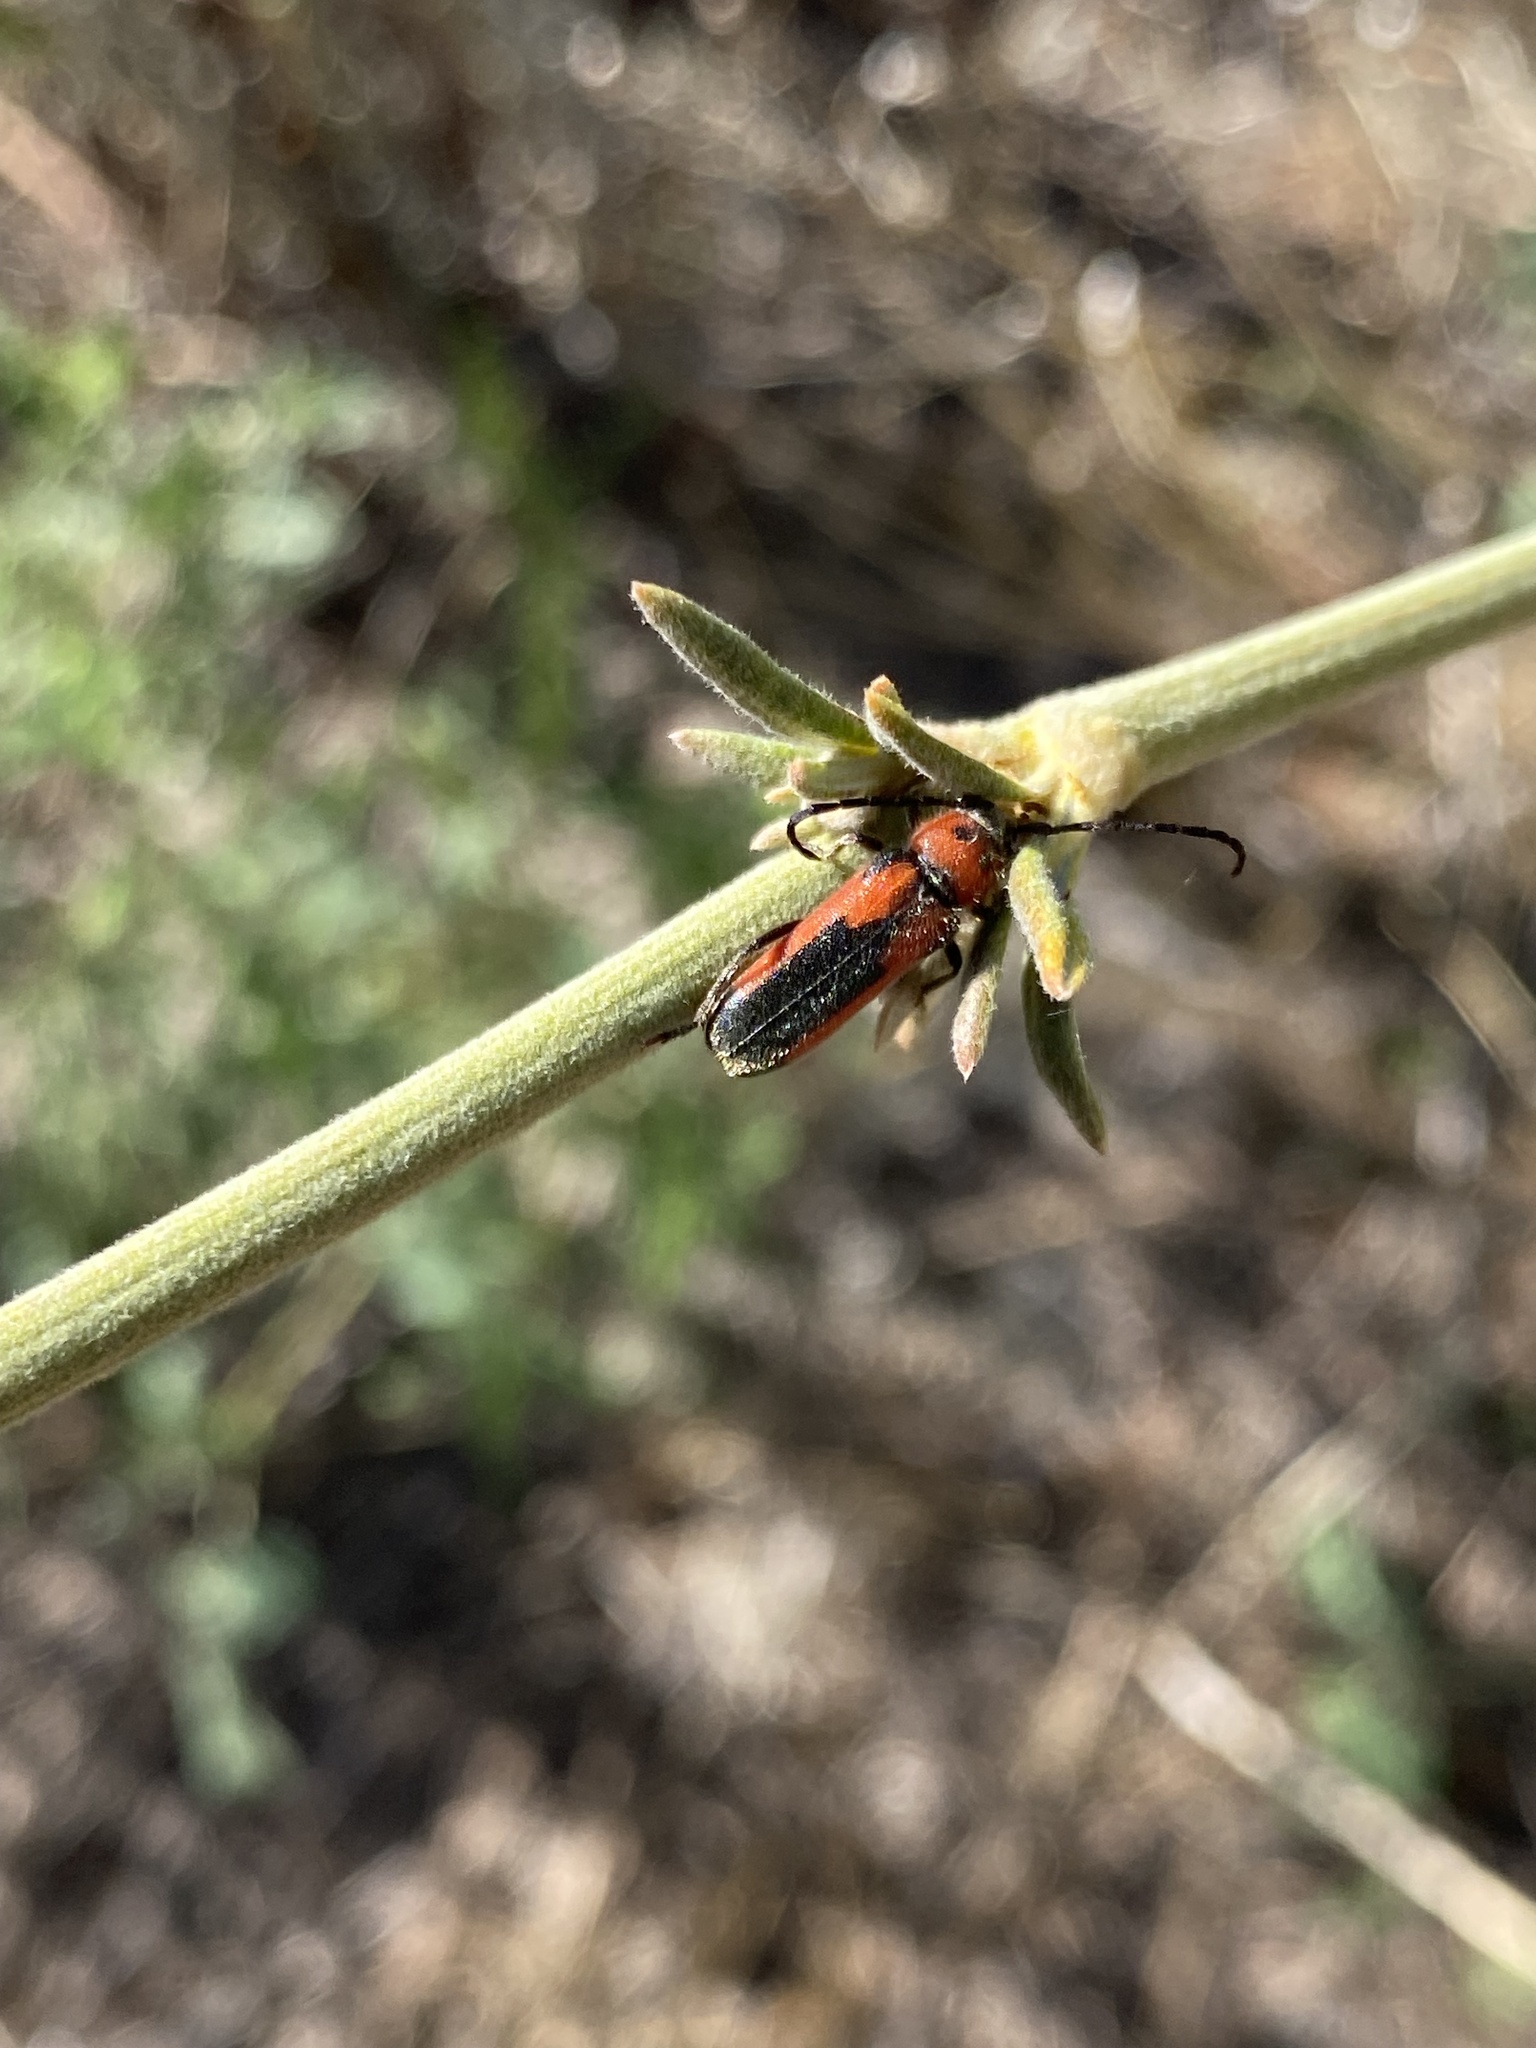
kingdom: Animalia
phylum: Arthropoda
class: Insecta
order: Coleoptera
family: Cerambycidae
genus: Crossidius
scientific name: Crossidius discoideus
